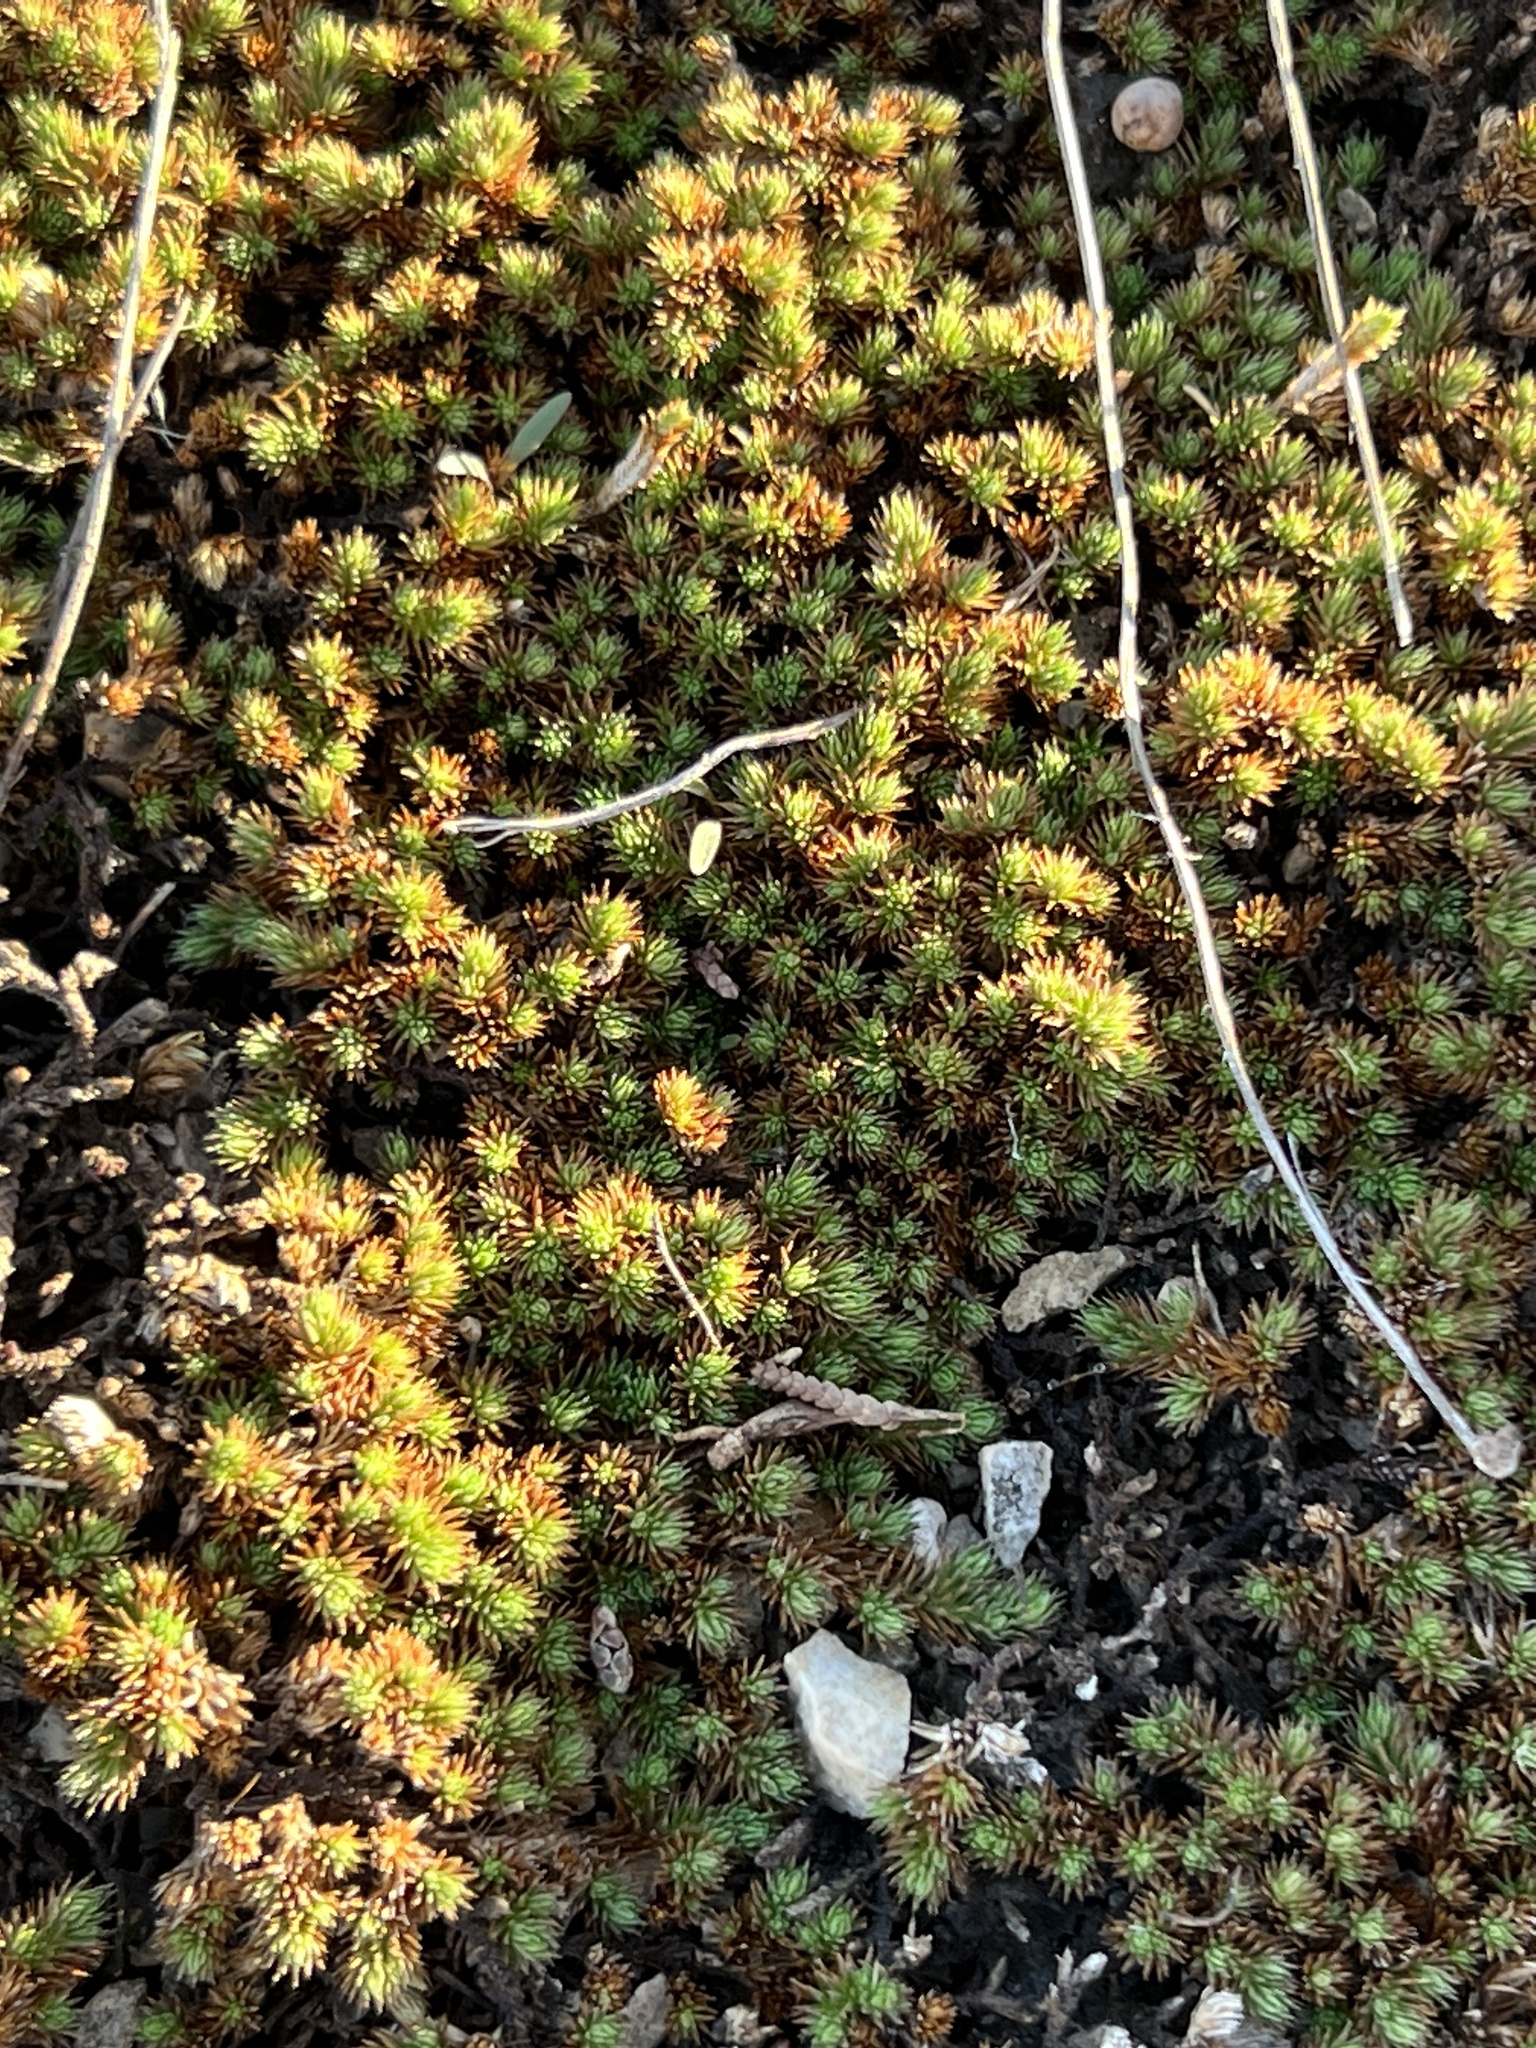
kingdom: Plantae
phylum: Tracheophyta
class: Lycopodiopsida
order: Selaginellales
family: Selaginellaceae
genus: Selaginella
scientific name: Selaginella wrightii
